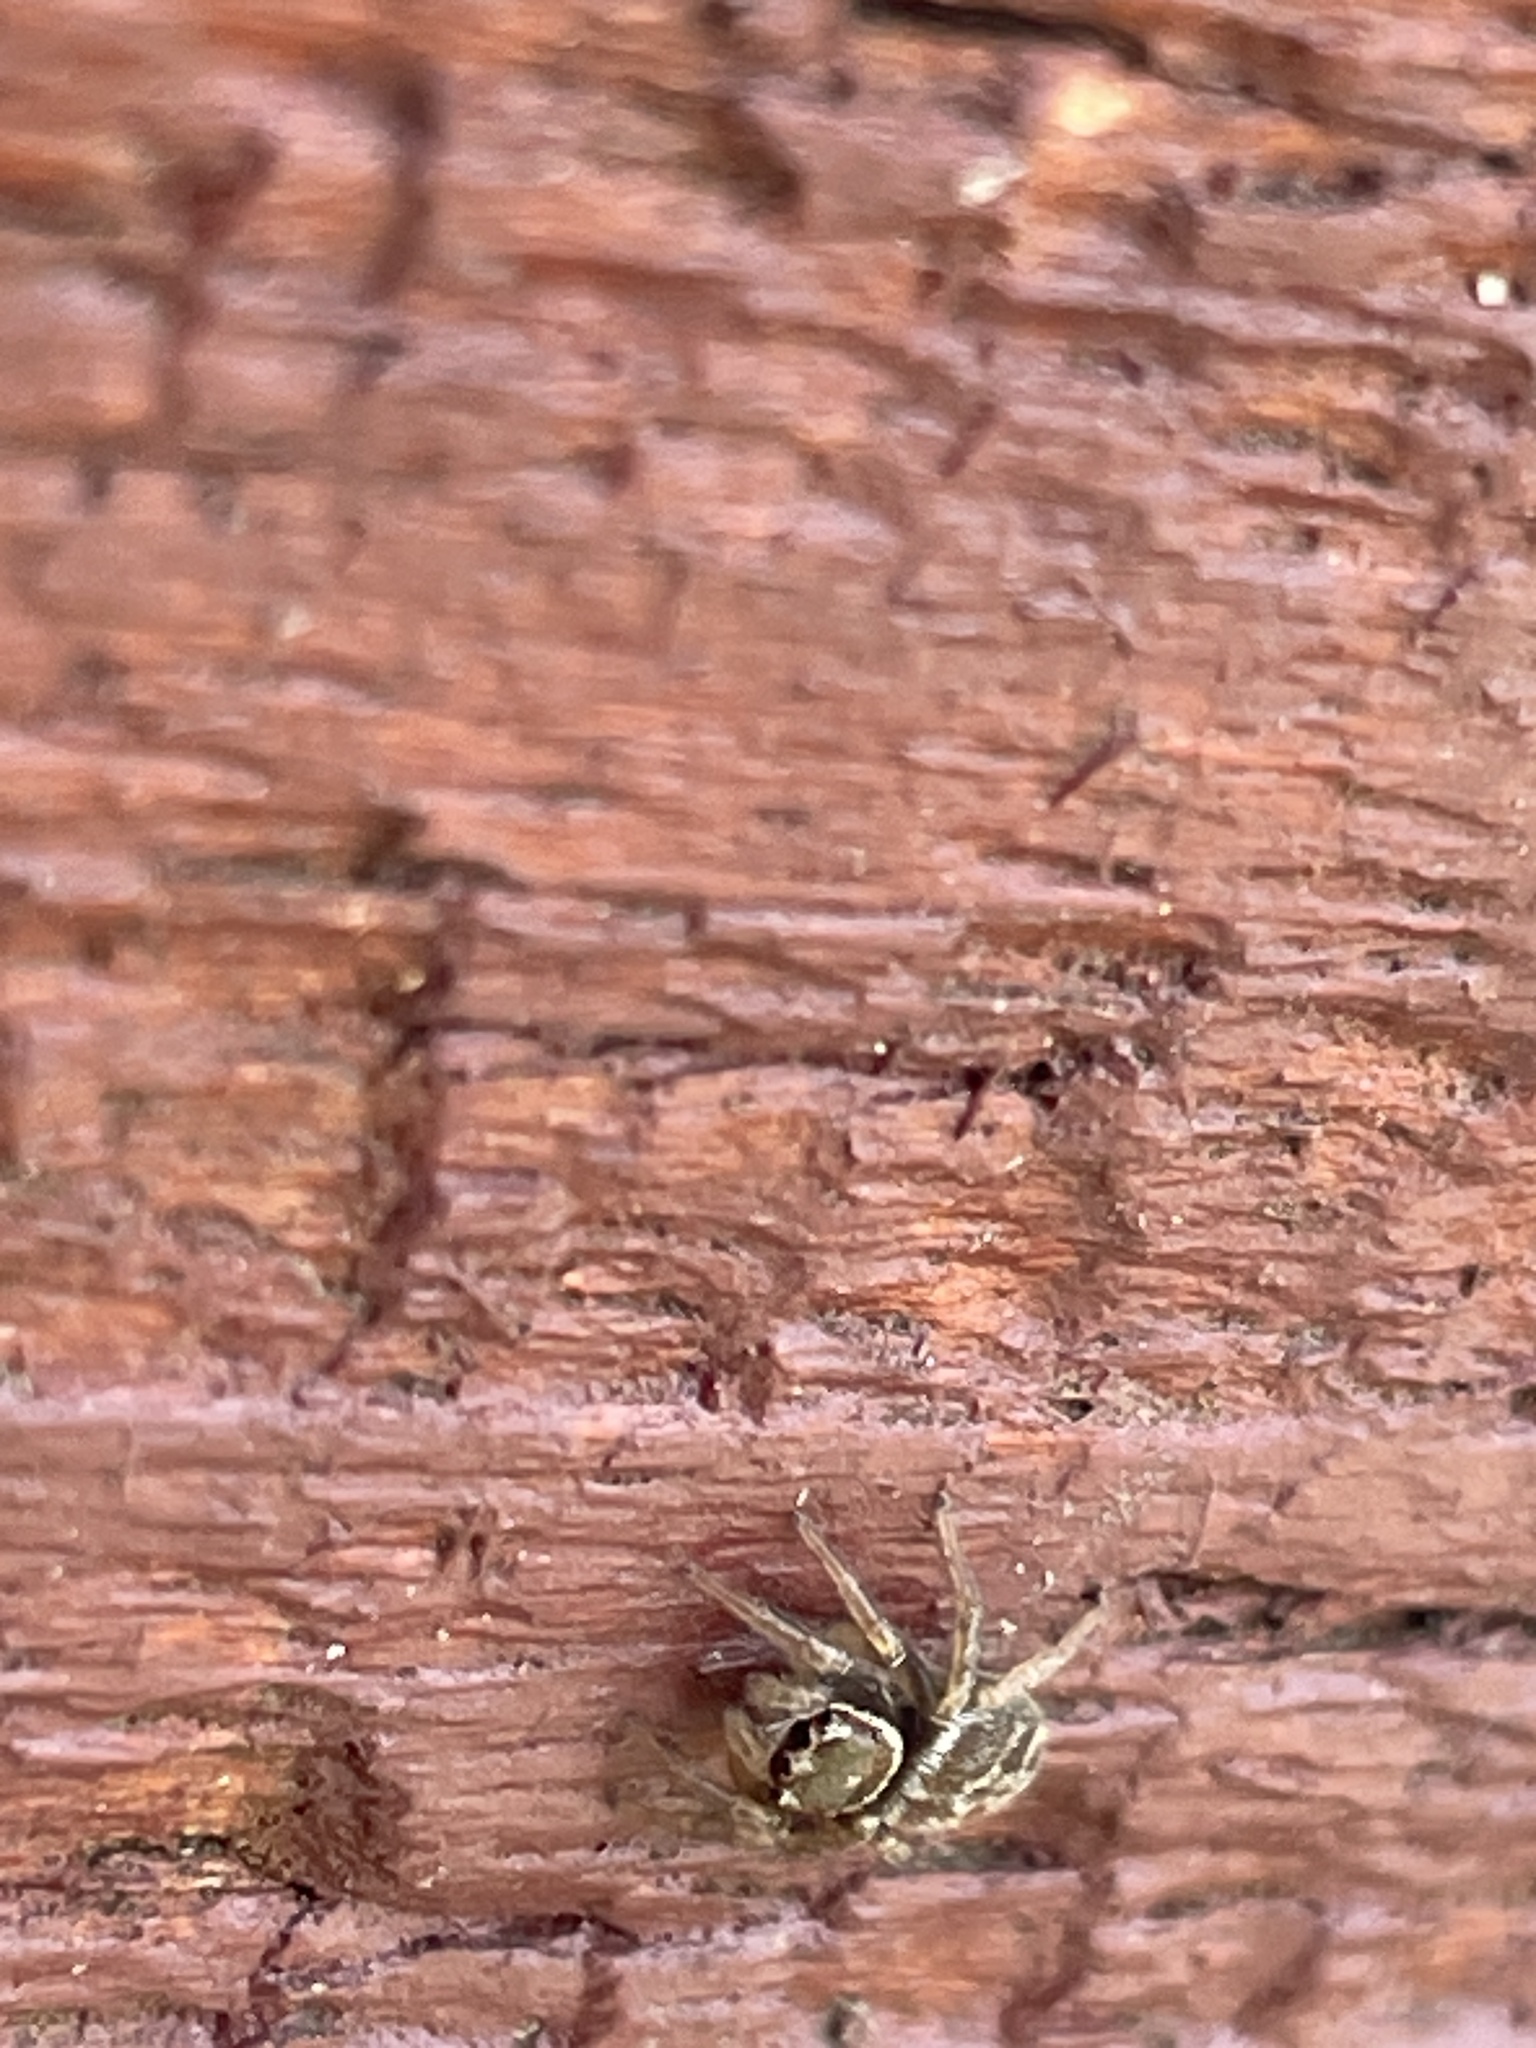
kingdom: Animalia
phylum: Arthropoda
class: Arachnida
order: Araneae
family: Salticidae
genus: Maratus
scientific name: Maratus griseus
